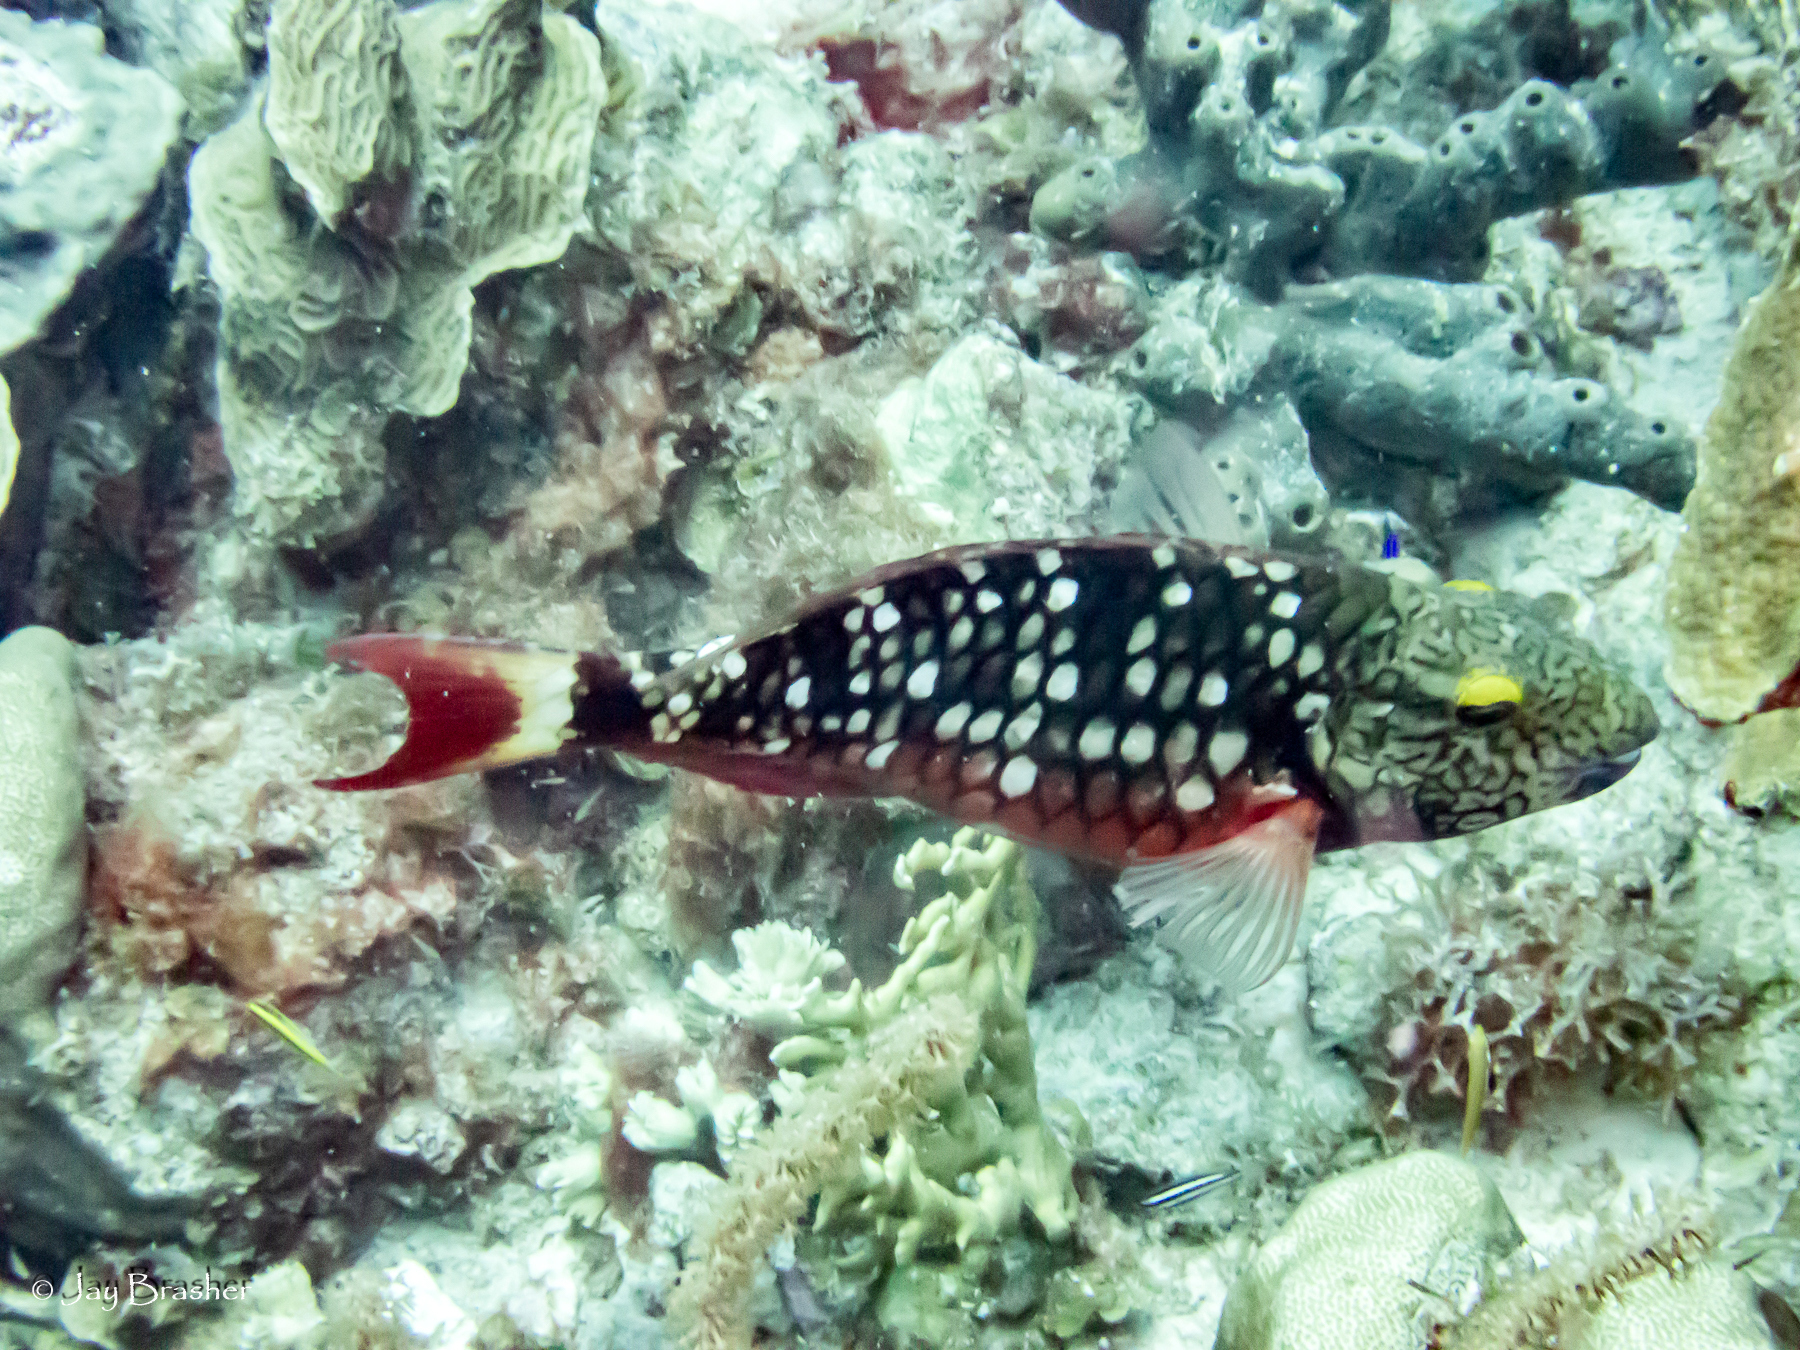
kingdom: Animalia
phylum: Chordata
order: Perciformes
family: Scaridae
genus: Sparisoma
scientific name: Sparisoma viride
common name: Stoplight parrotfish
